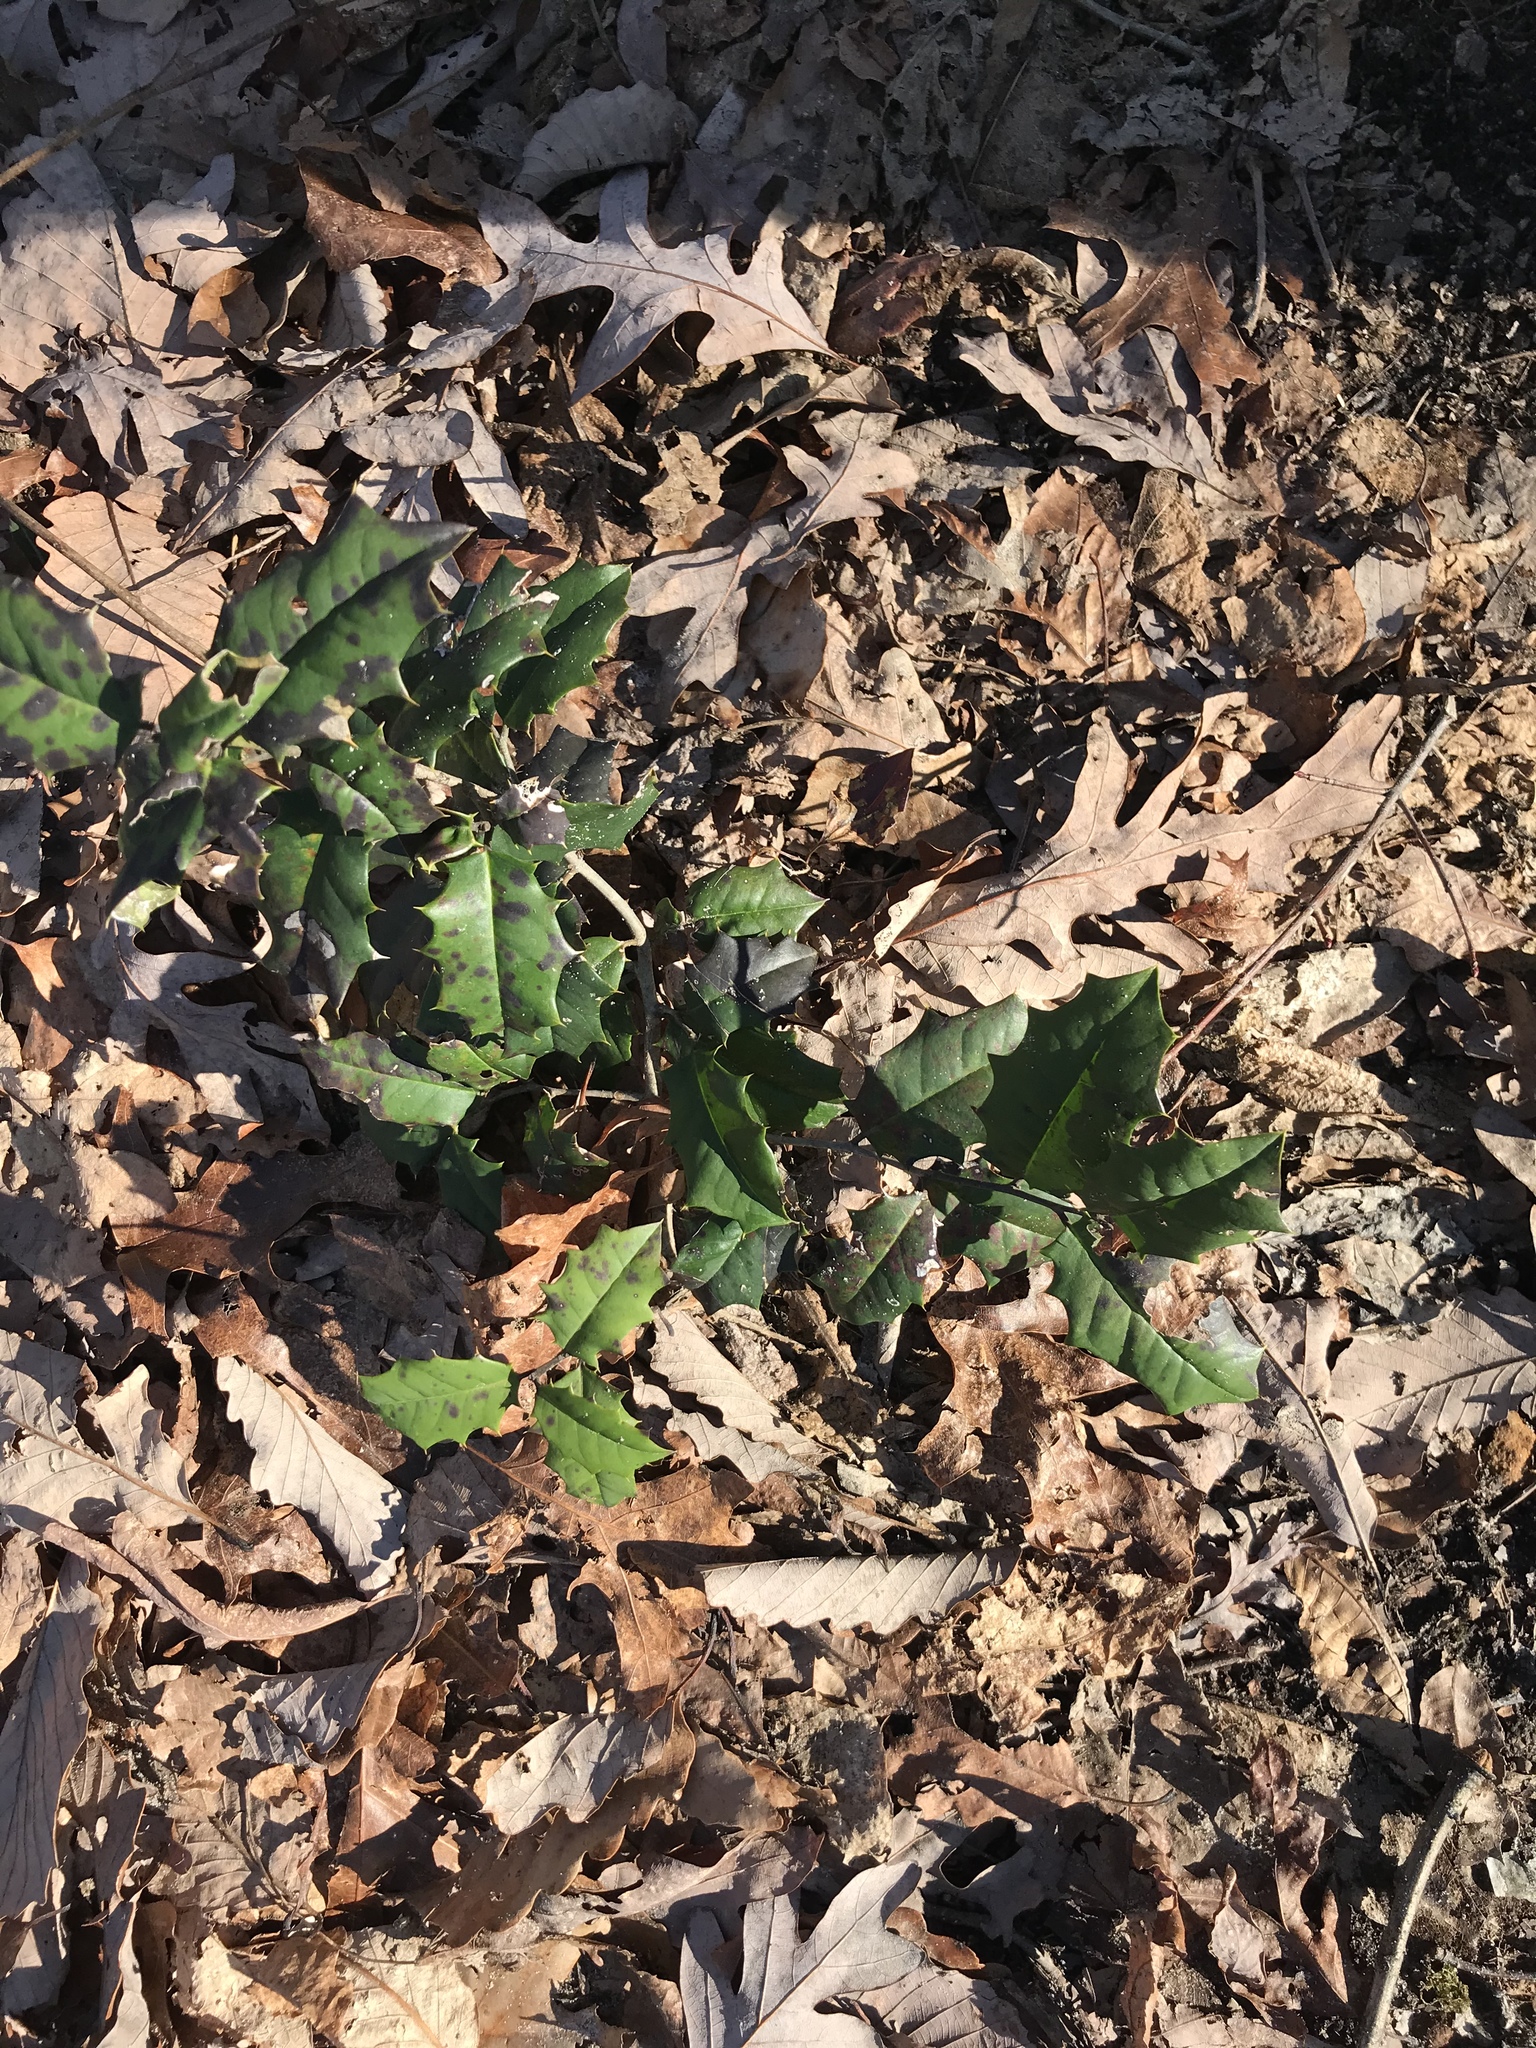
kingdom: Plantae
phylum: Tracheophyta
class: Magnoliopsida
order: Aquifoliales
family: Aquifoliaceae
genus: Ilex
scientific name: Ilex opaca
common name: American holly
